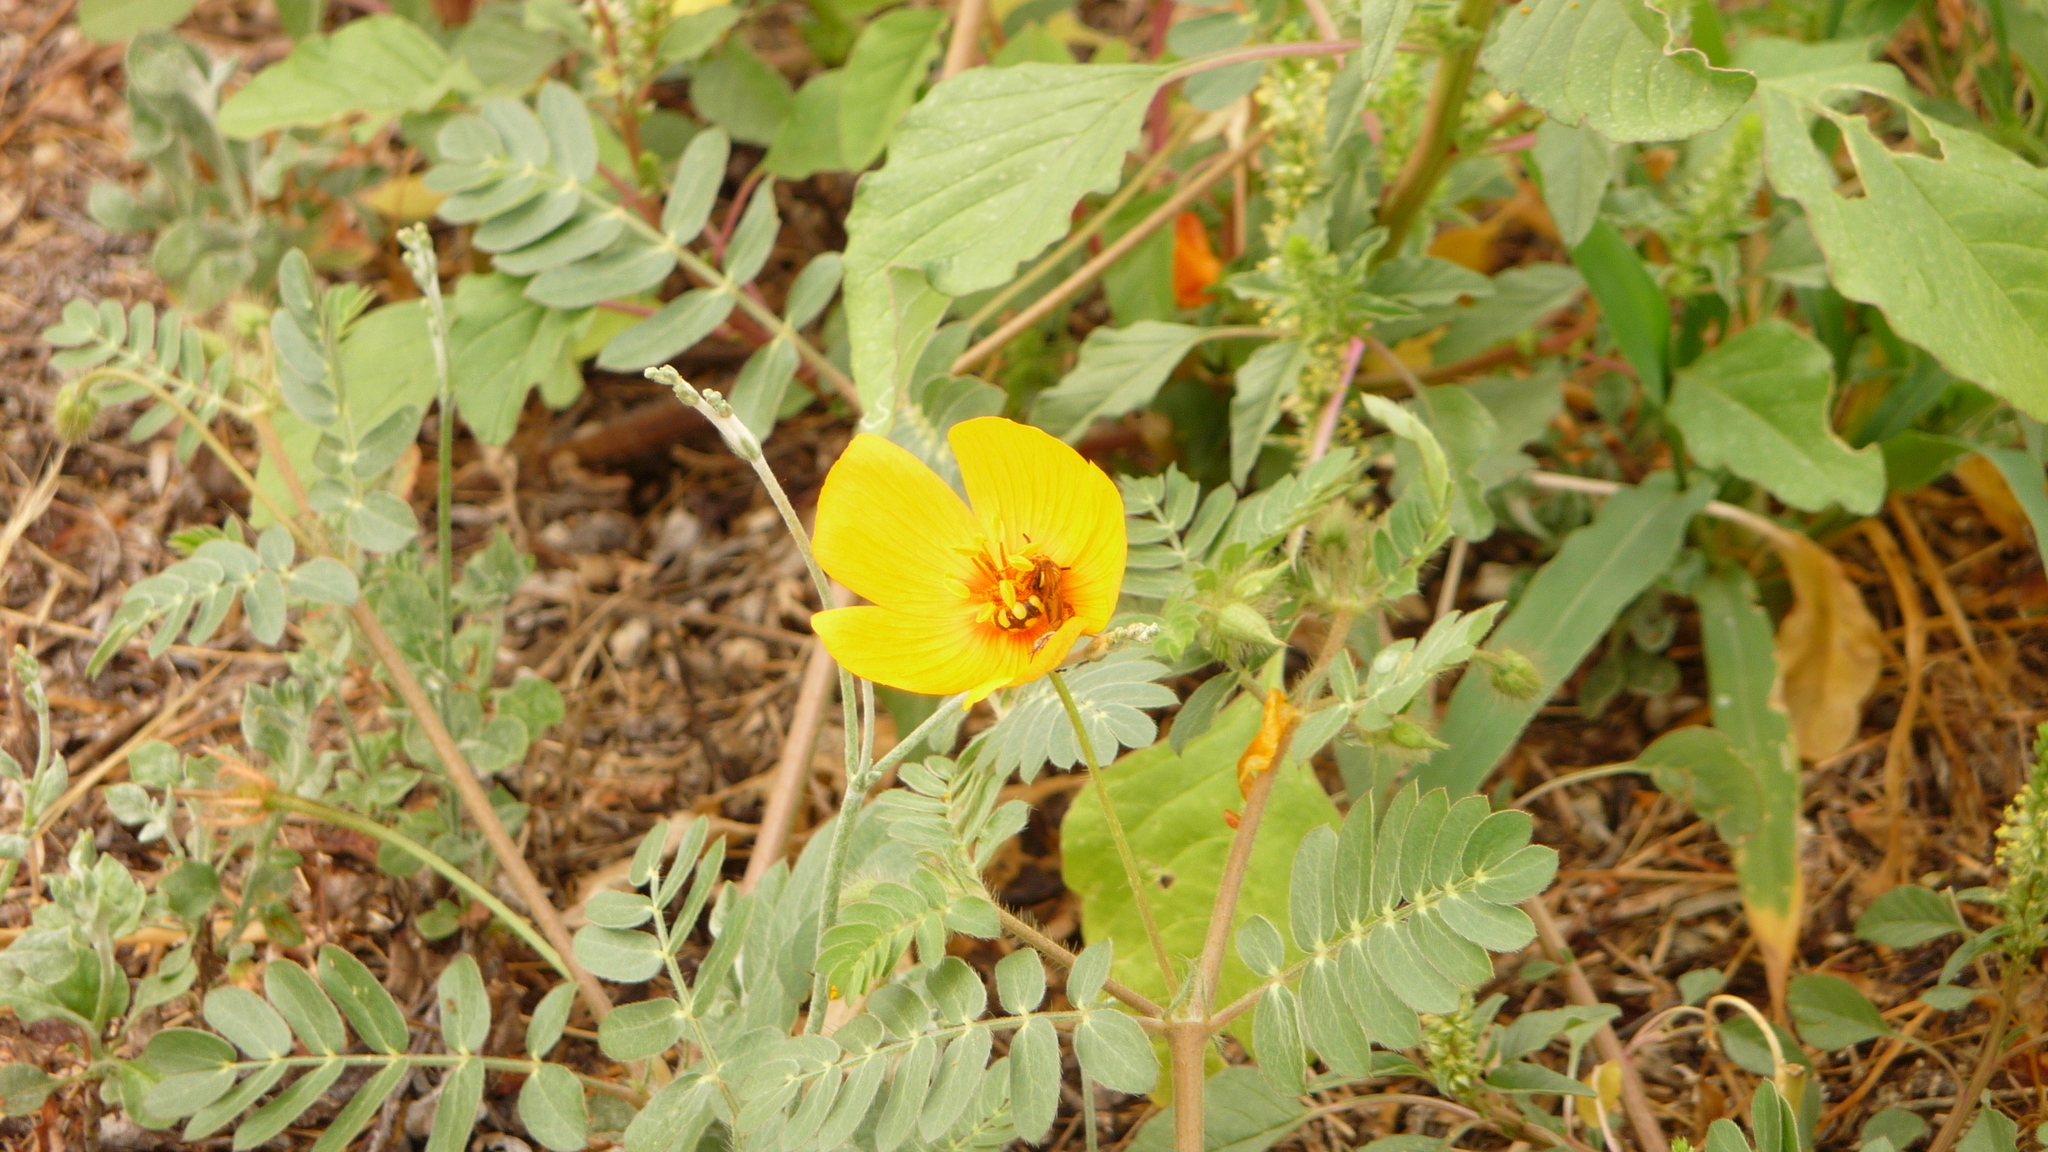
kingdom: Plantae
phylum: Tracheophyta
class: Magnoliopsida
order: Zygophyllales
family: Zygophyllaceae
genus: Kallstroemia
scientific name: Kallstroemia grandiflora
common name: Arizona-poppy
